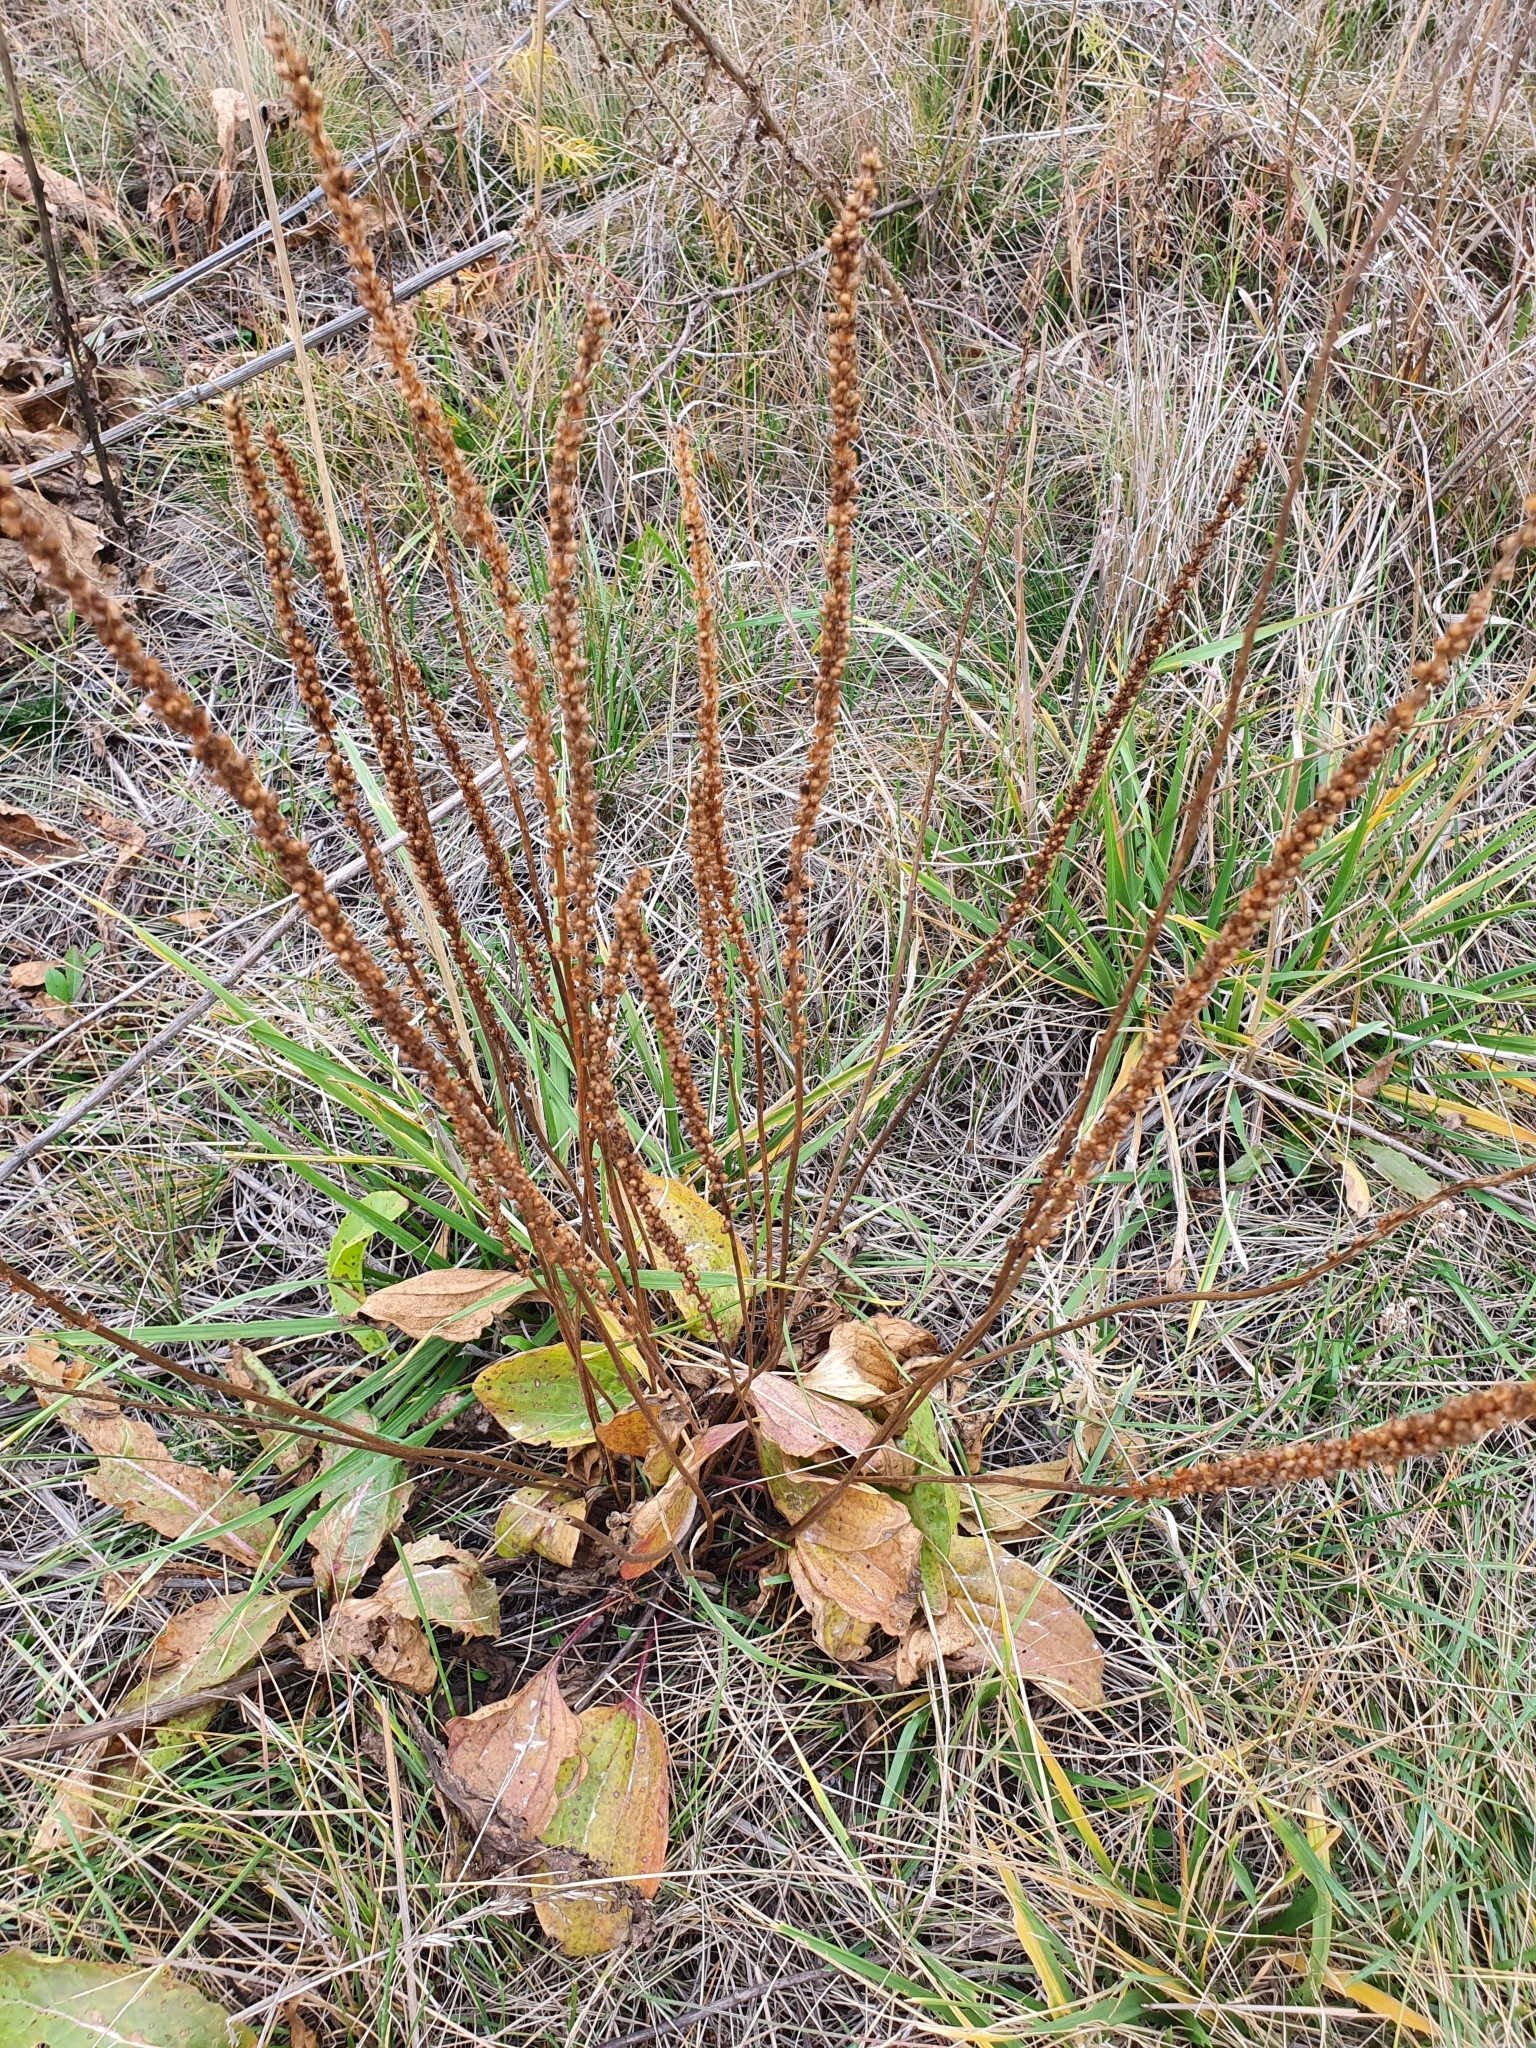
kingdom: Plantae
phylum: Tracheophyta
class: Magnoliopsida
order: Lamiales
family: Plantaginaceae
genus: Plantago
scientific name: Plantago cornuti
